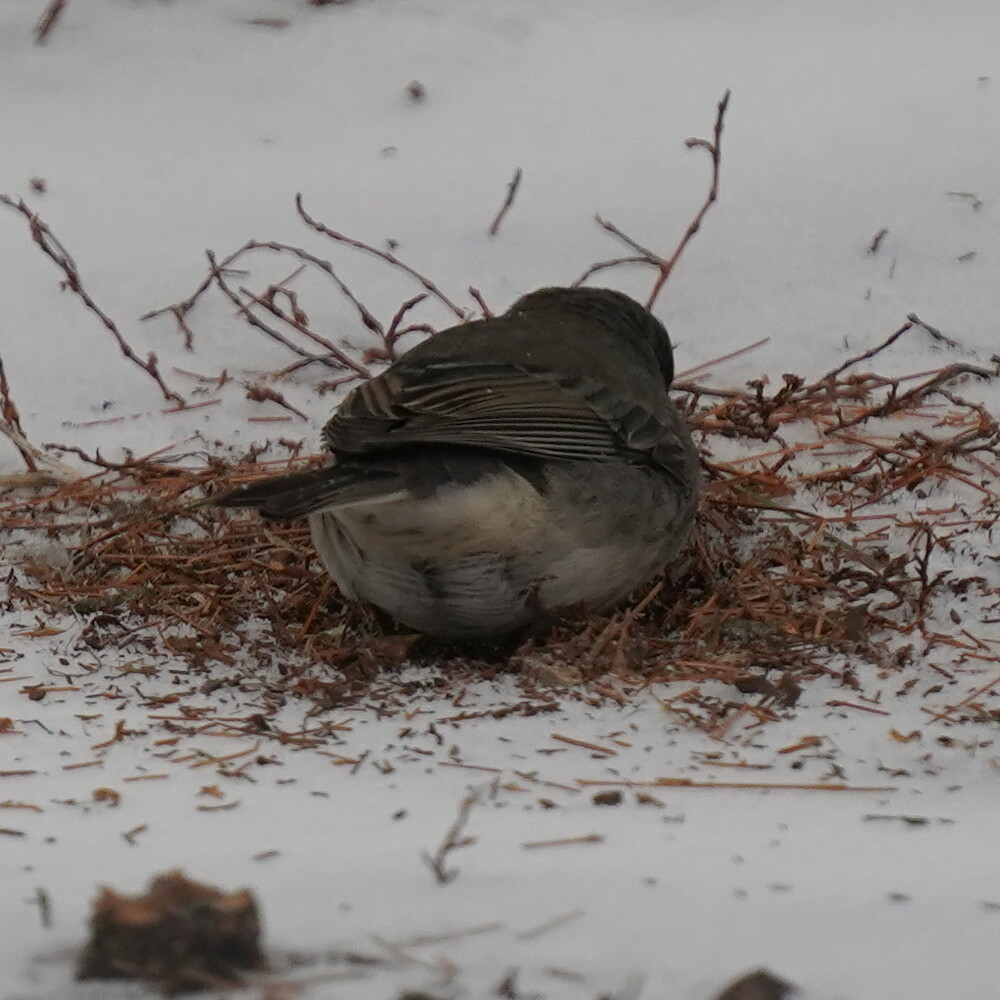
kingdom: Animalia
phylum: Chordata
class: Aves
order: Passeriformes
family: Passerellidae
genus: Junco
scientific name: Junco hyemalis
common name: Dark-eyed junco
